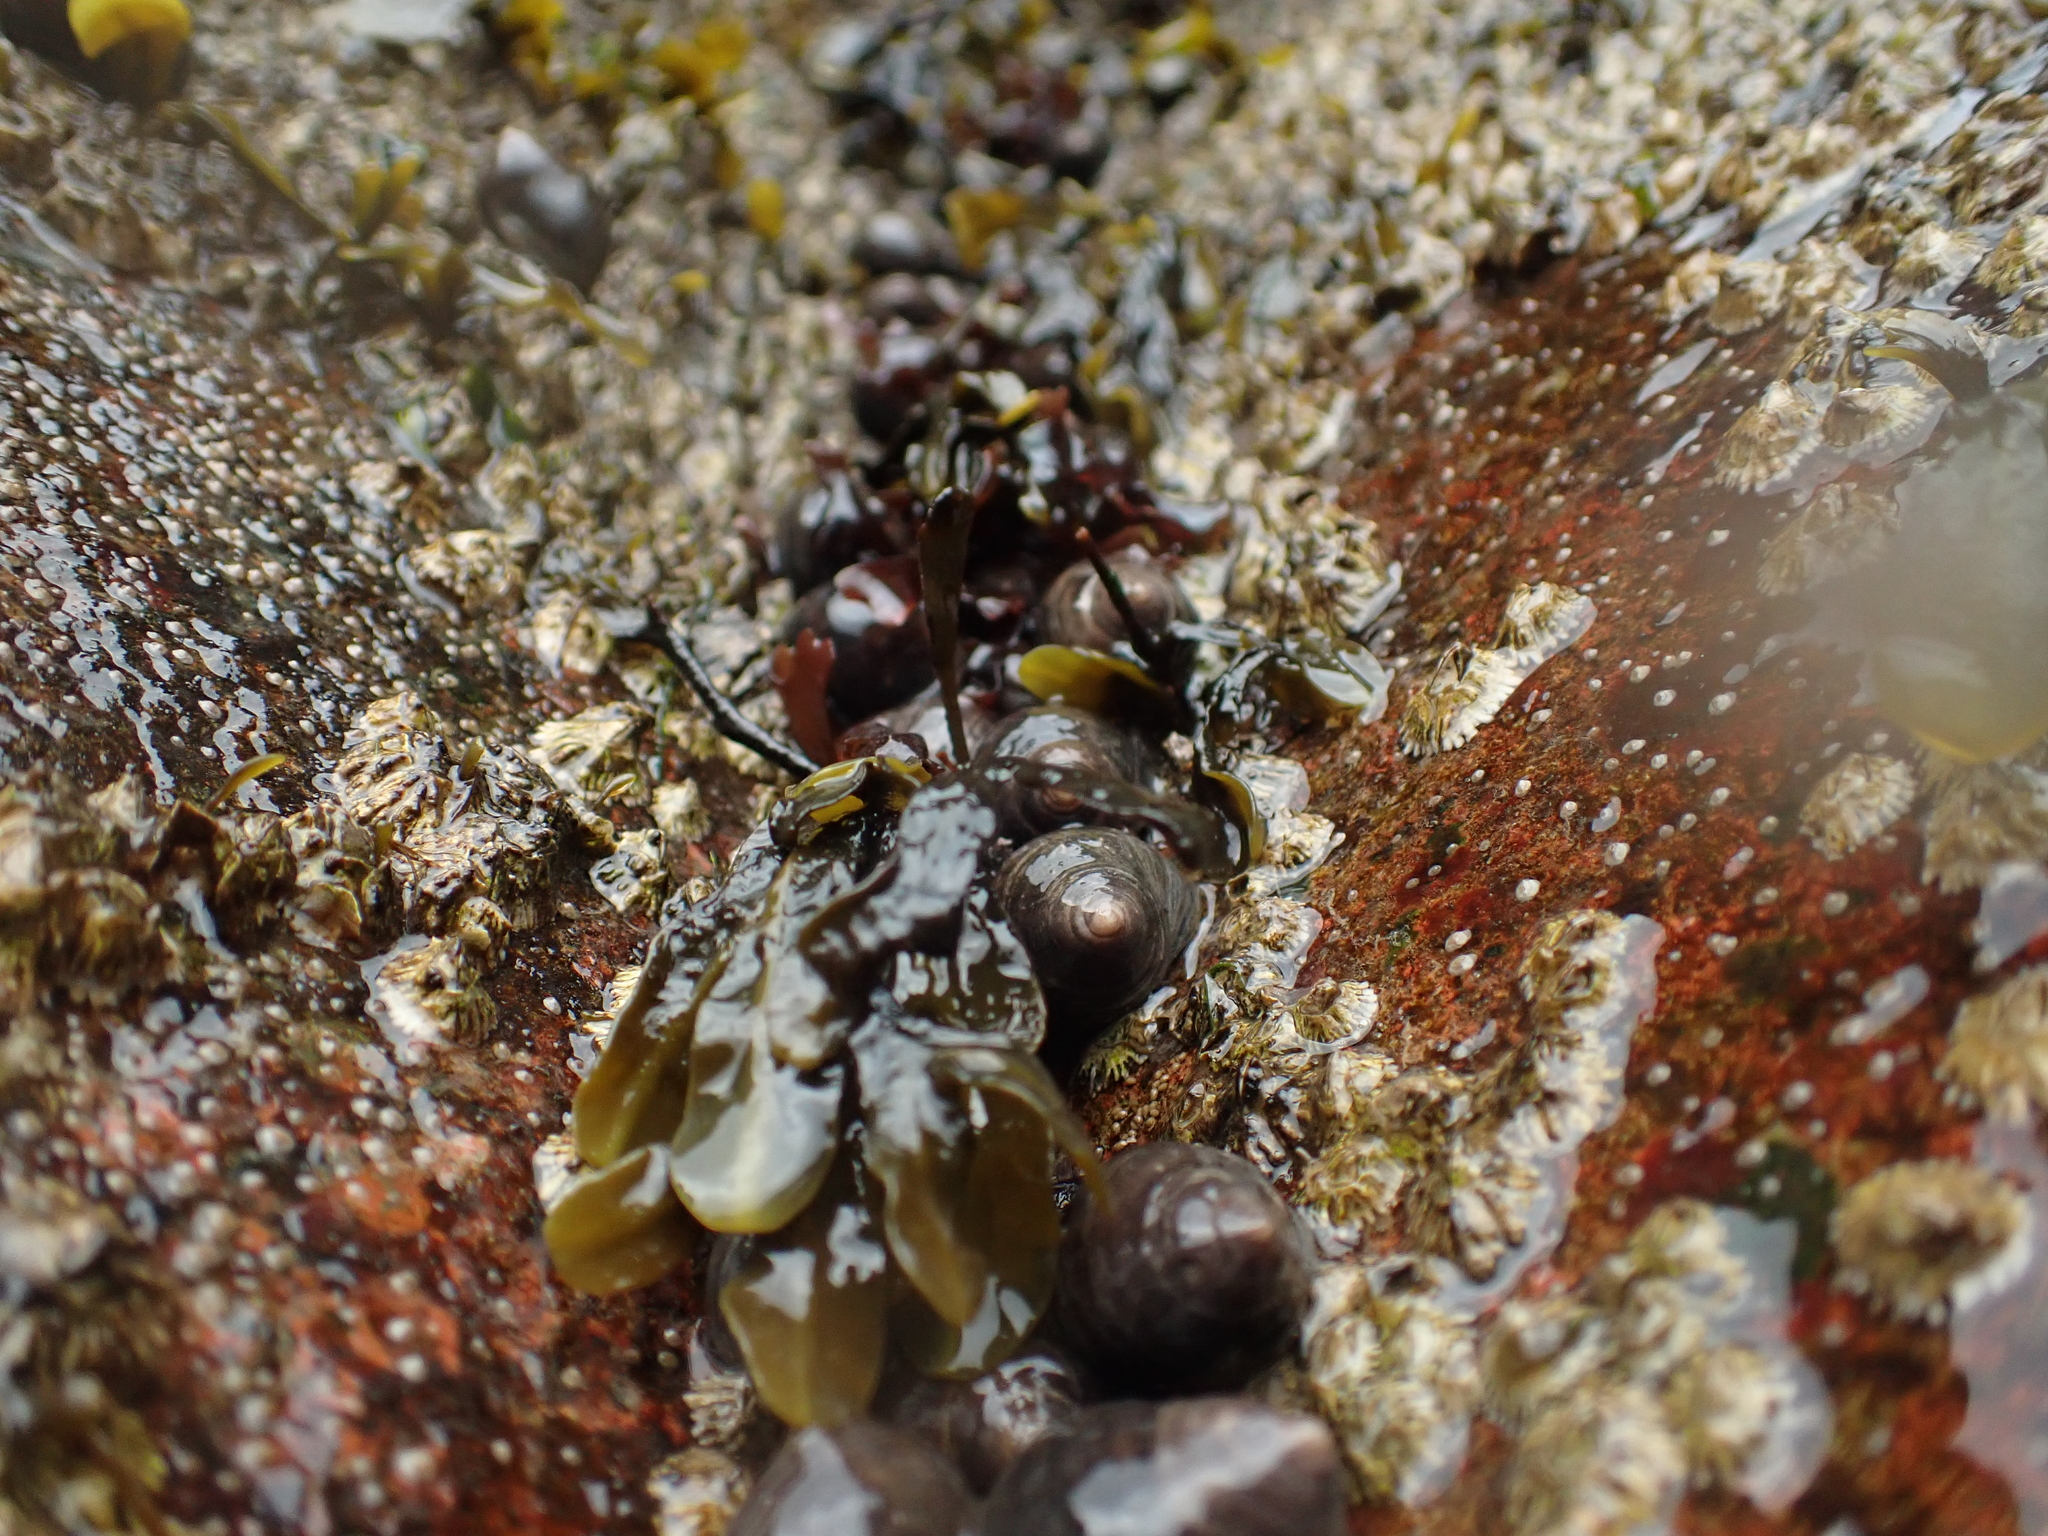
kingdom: Animalia
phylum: Mollusca
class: Gastropoda
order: Littorinimorpha
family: Littorinidae
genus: Littorina
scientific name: Littorina littorea
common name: Common periwinkle
